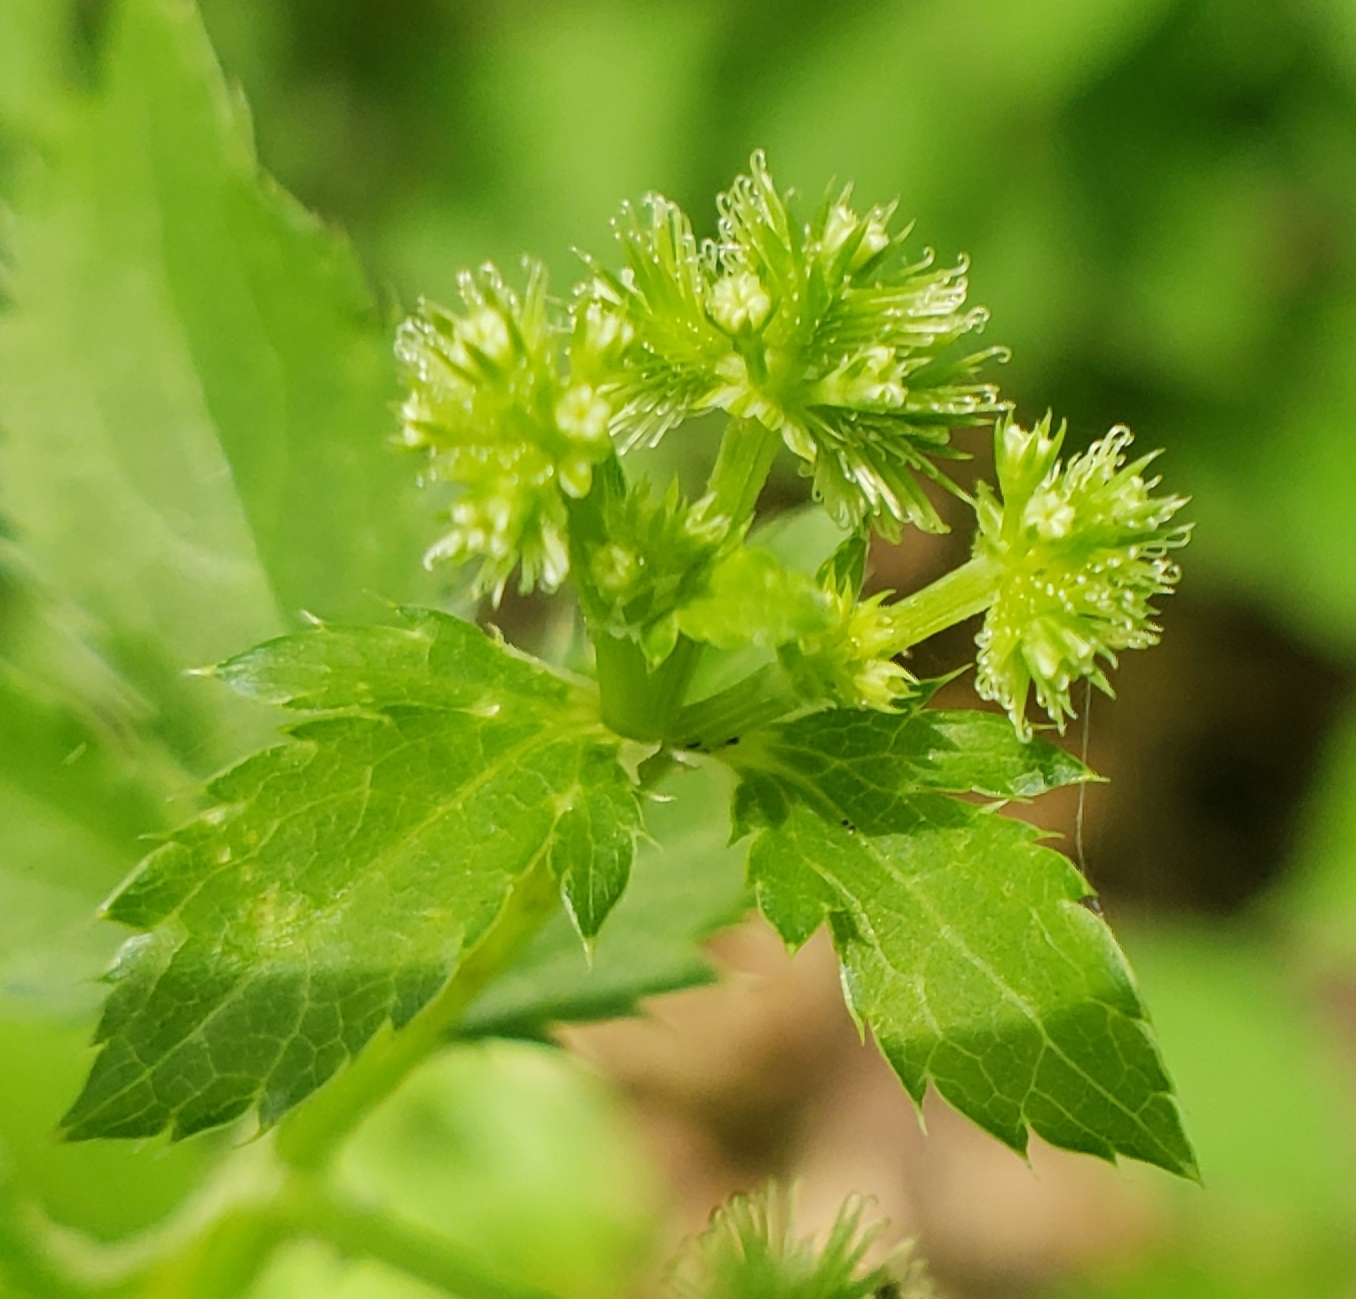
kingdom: Plantae
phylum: Tracheophyta
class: Magnoliopsida
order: Apiales
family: Apiaceae
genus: Sanicula
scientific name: Sanicula canadensis
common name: Canada sanicle
